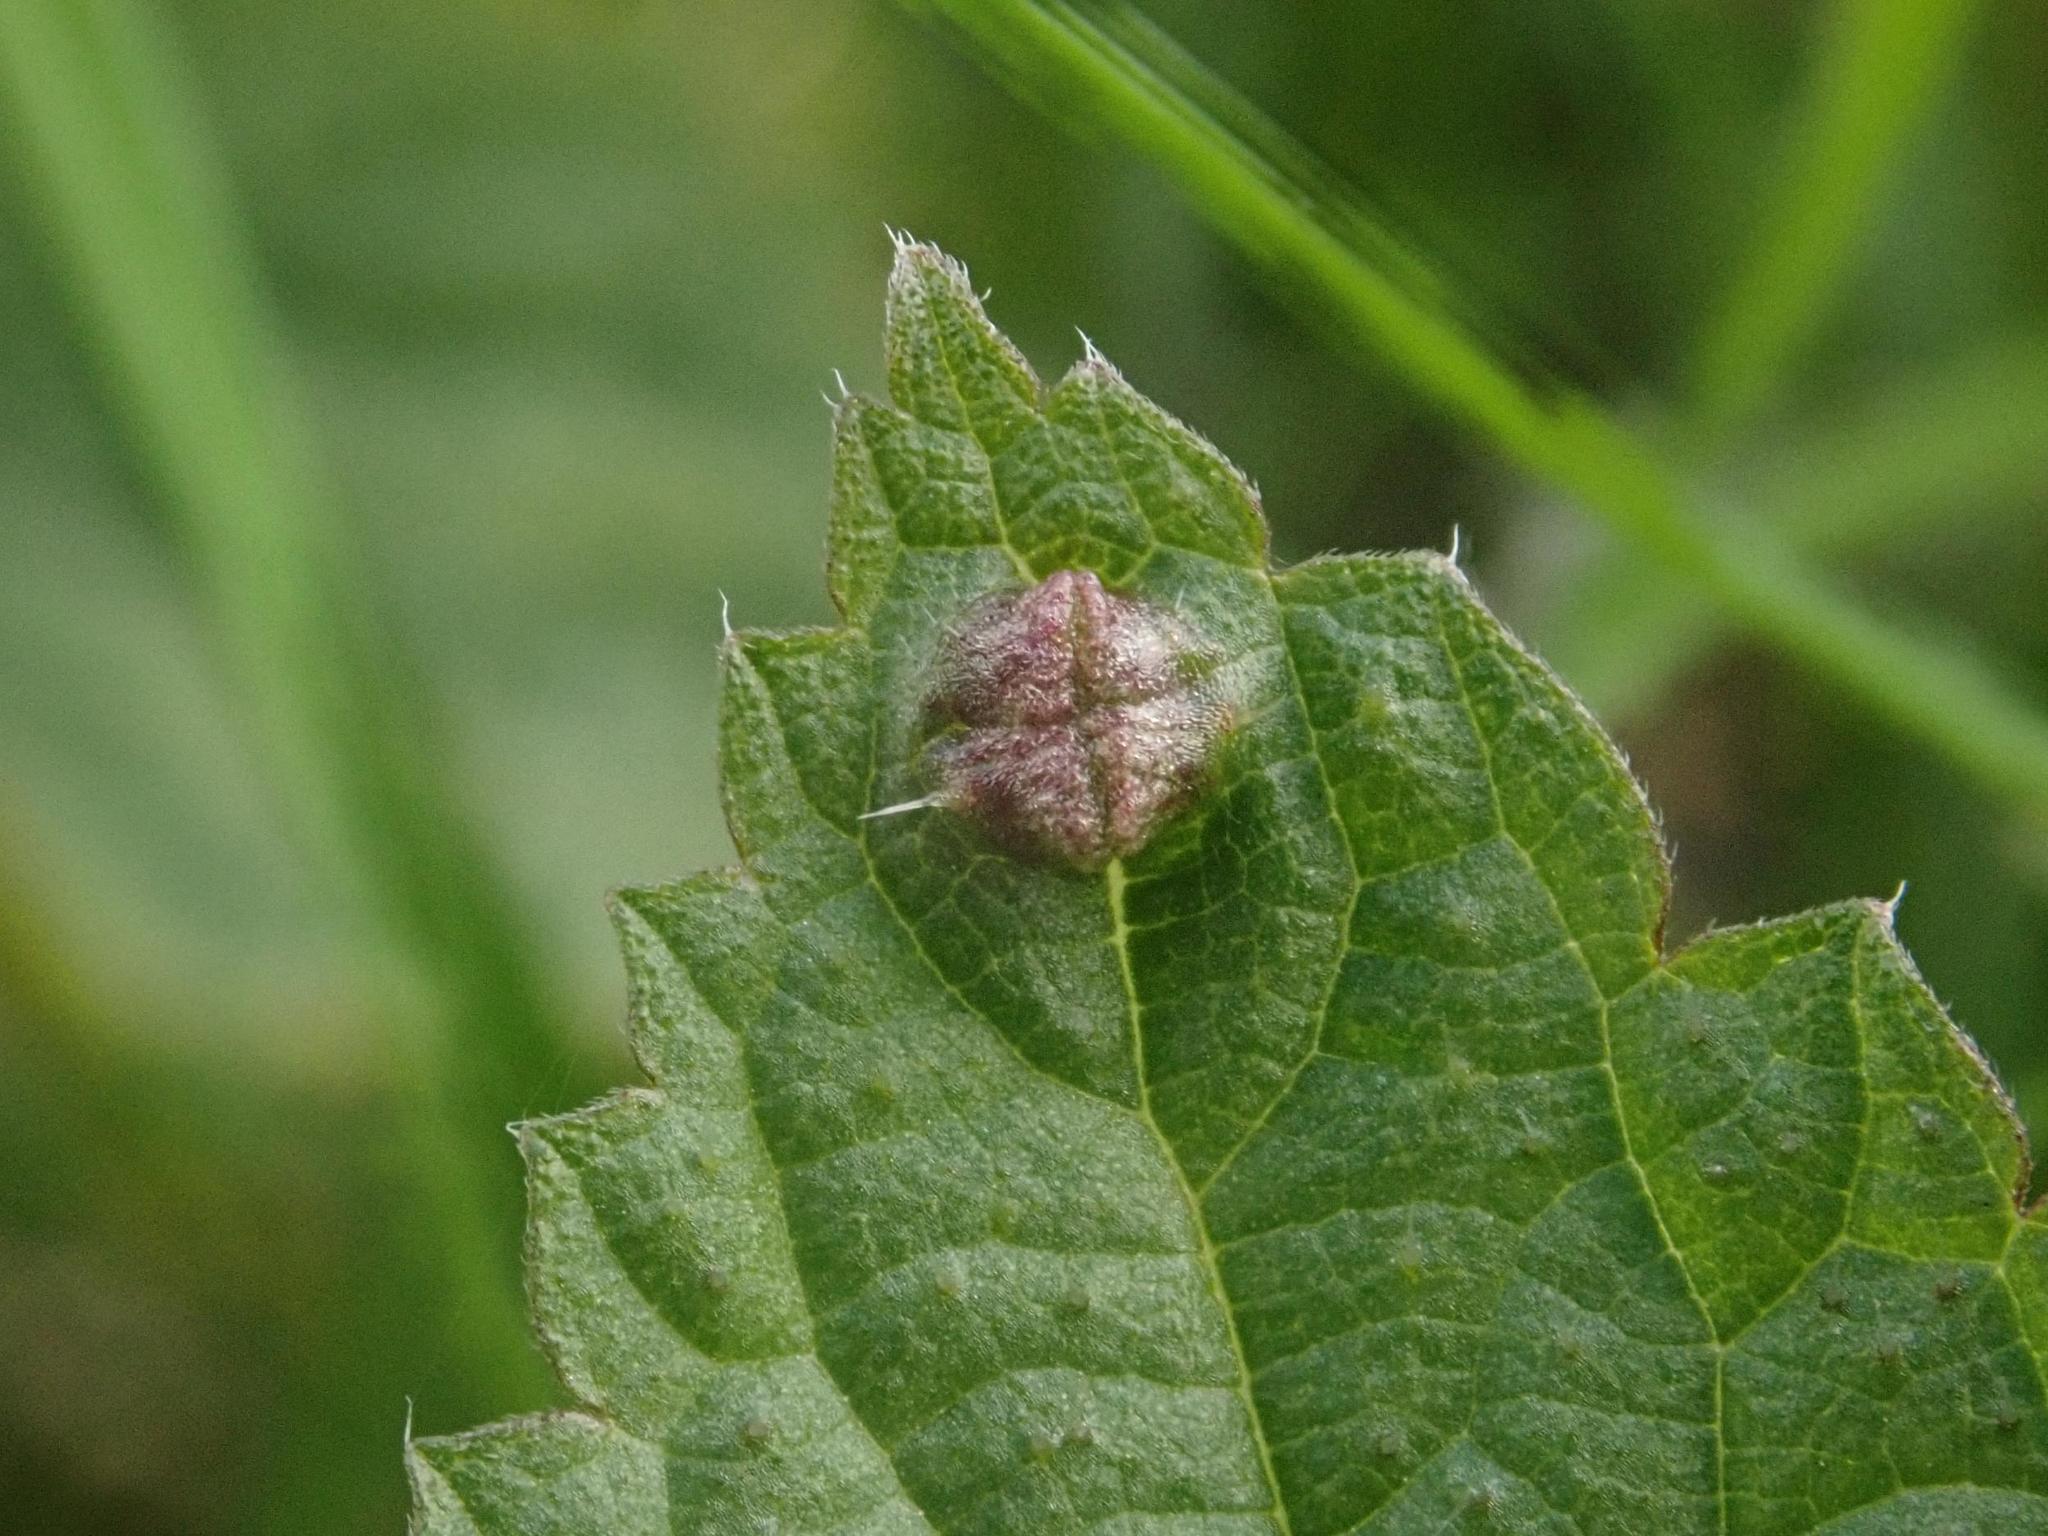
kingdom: Animalia
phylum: Arthropoda
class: Insecta
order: Diptera
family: Cecidomyiidae
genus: Dasineura
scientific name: Dasineura urticae
